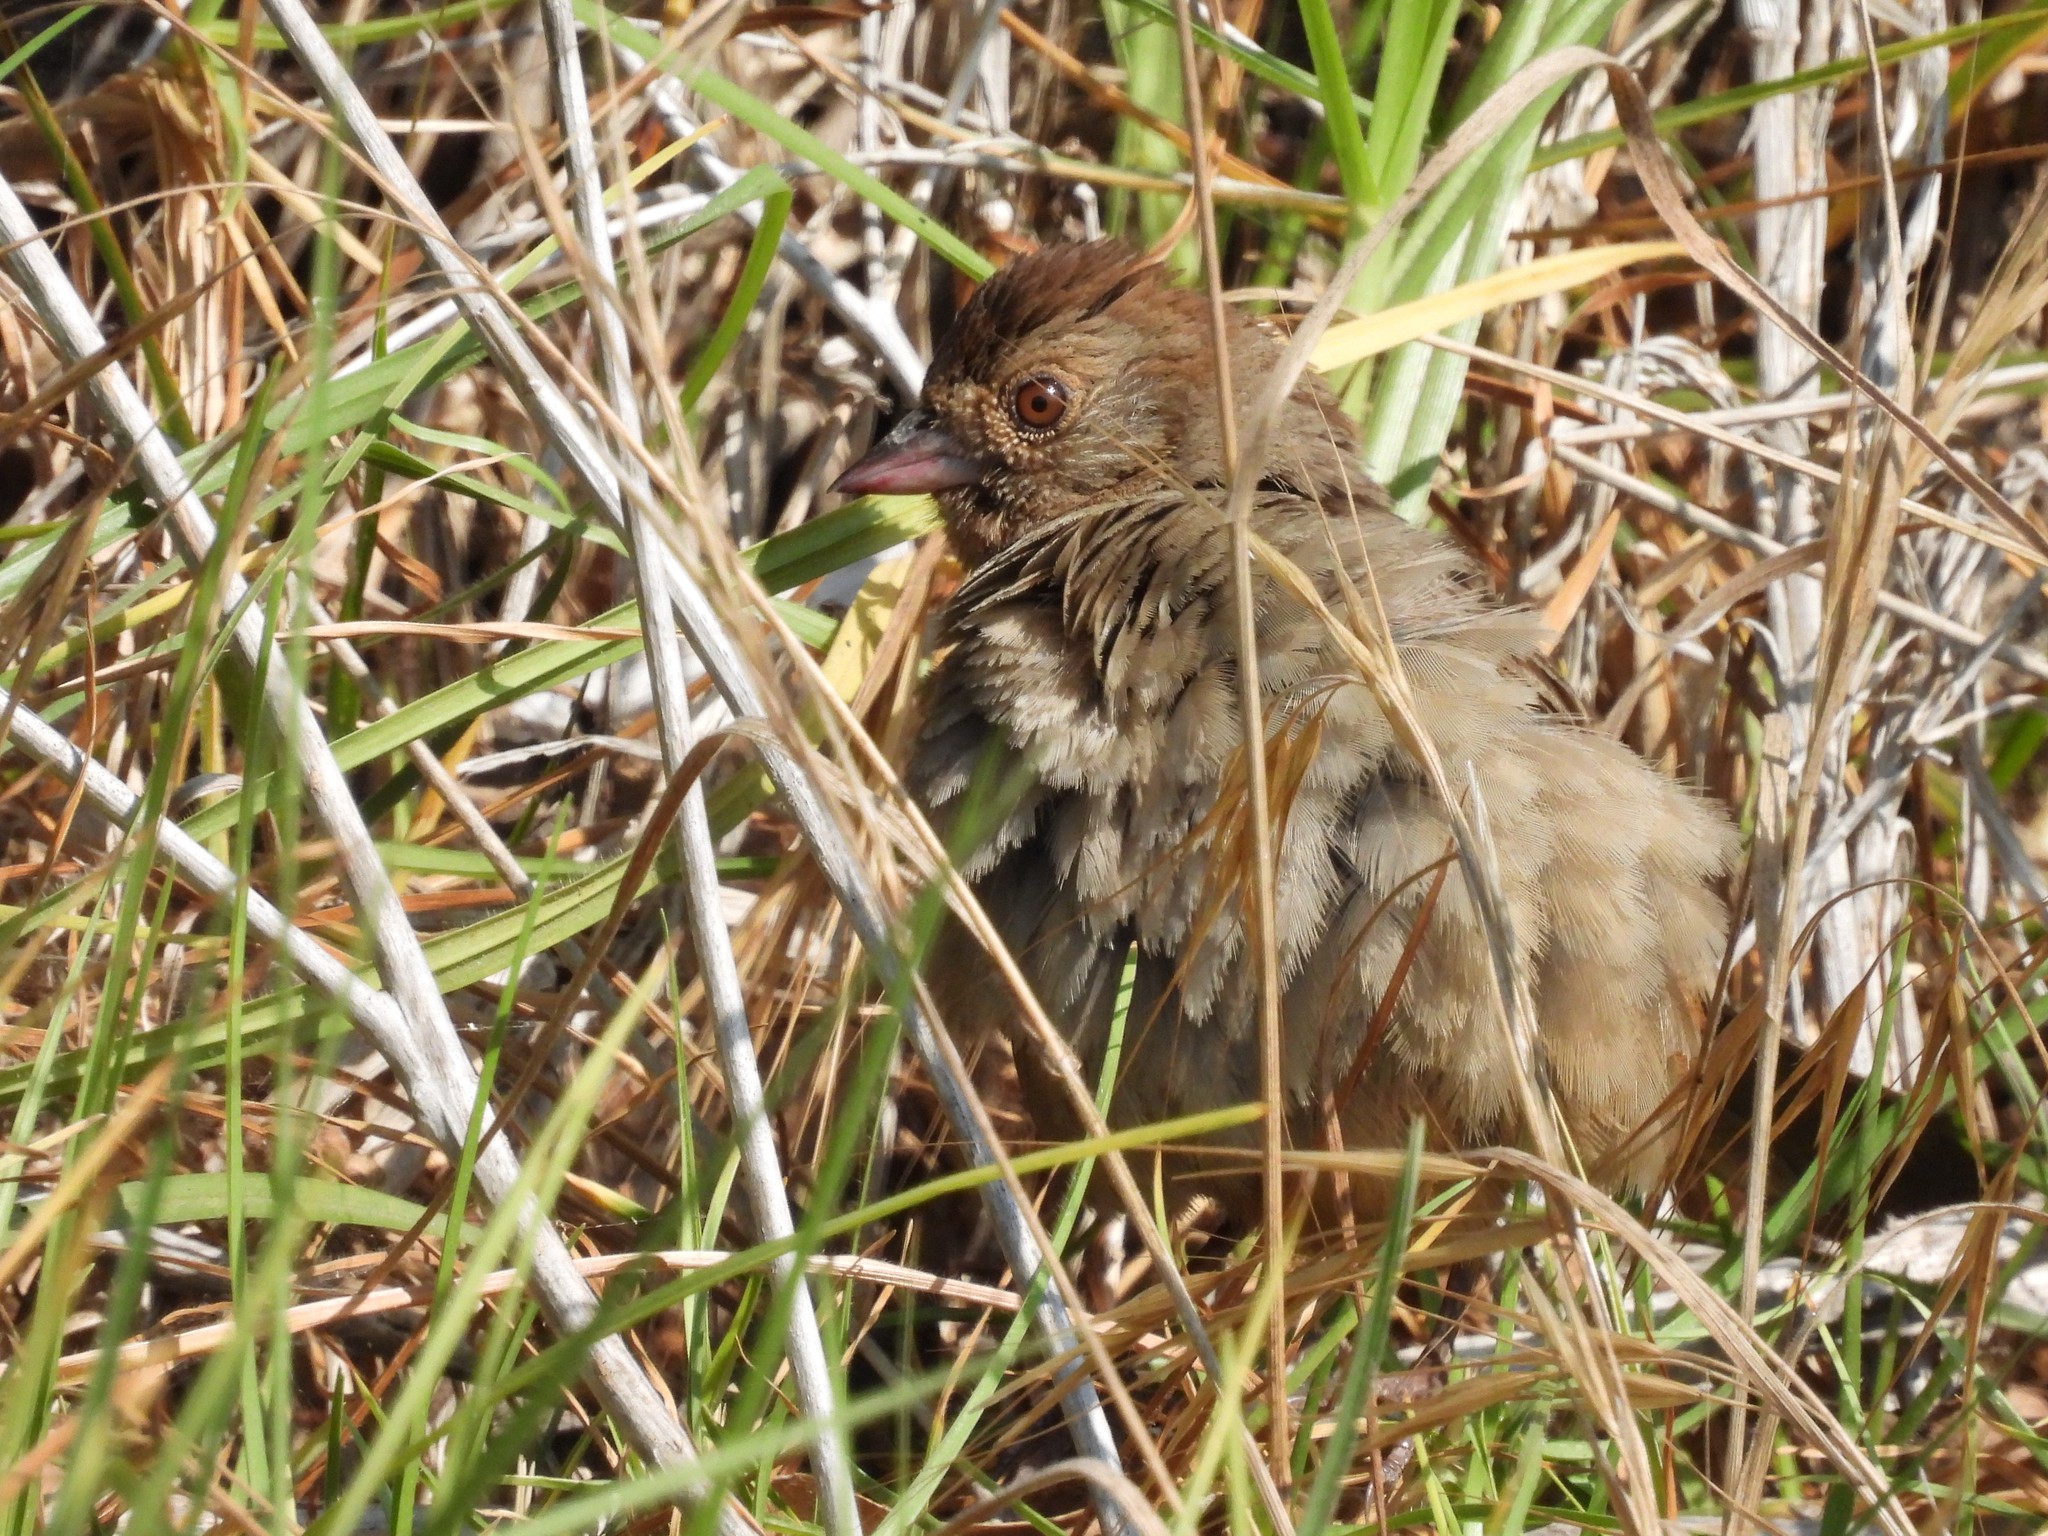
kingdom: Animalia
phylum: Chordata
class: Aves
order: Passeriformes
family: Passerellidae
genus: Melozone
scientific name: Melozone crissalis
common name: California towhee
